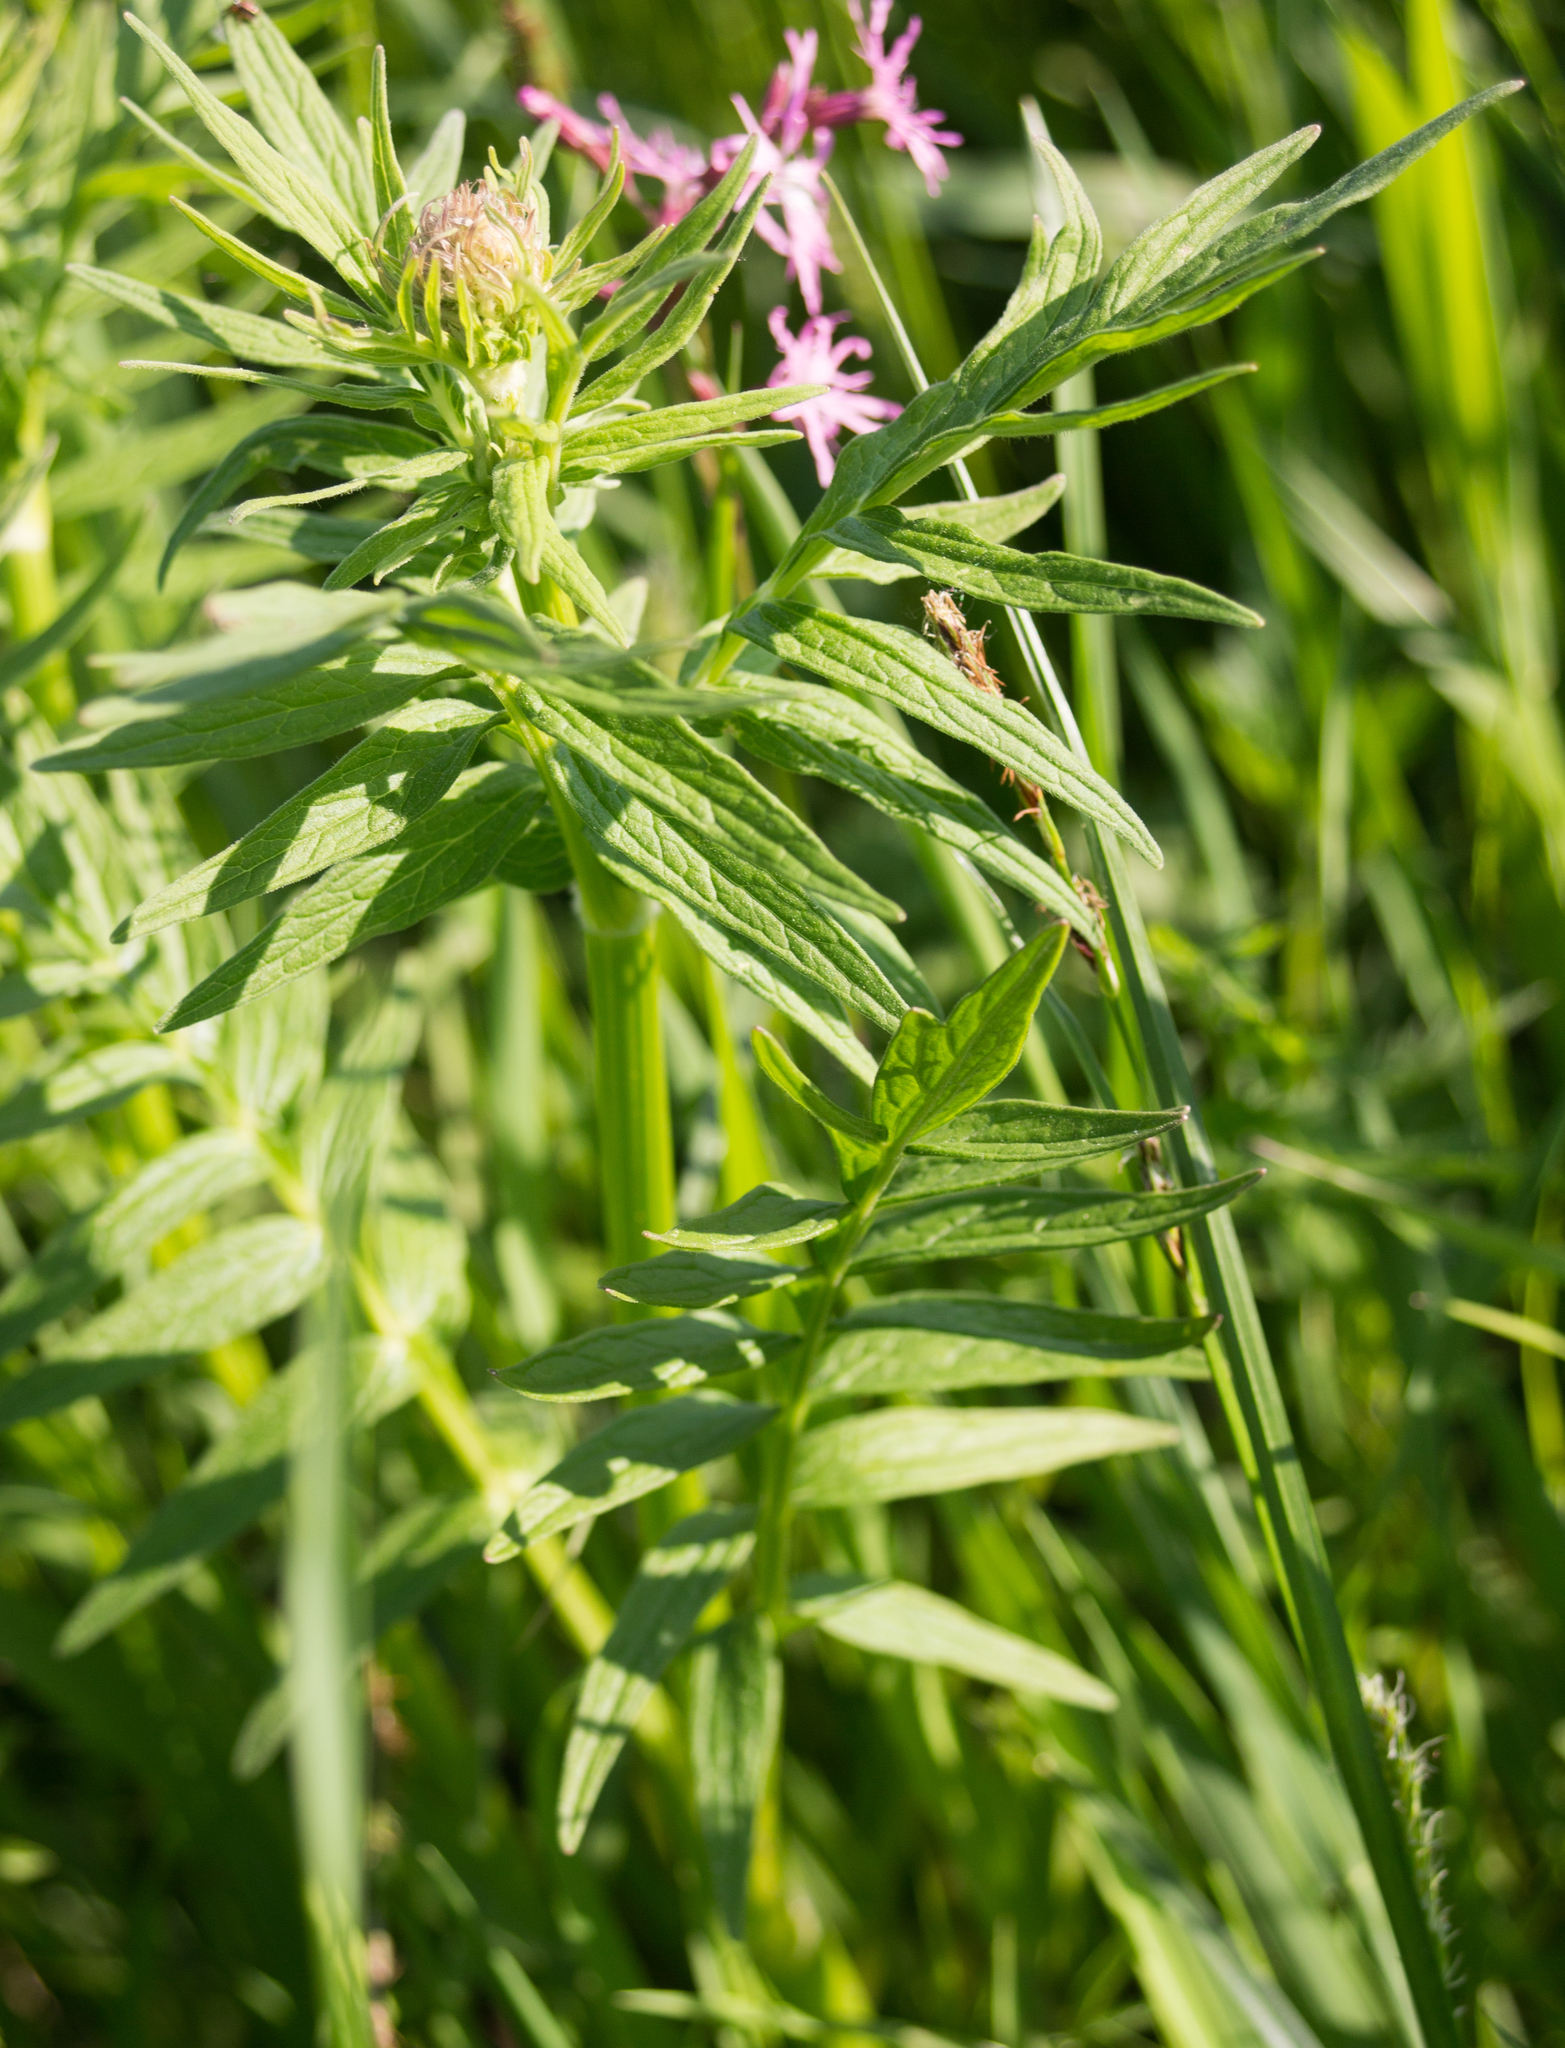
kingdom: Plantae
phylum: Tracheophyta
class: Magnoliopsida
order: Dipsacales
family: Caprifoliaceae
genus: Valeriana
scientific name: Valeriana officinalis
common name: Common valerian
